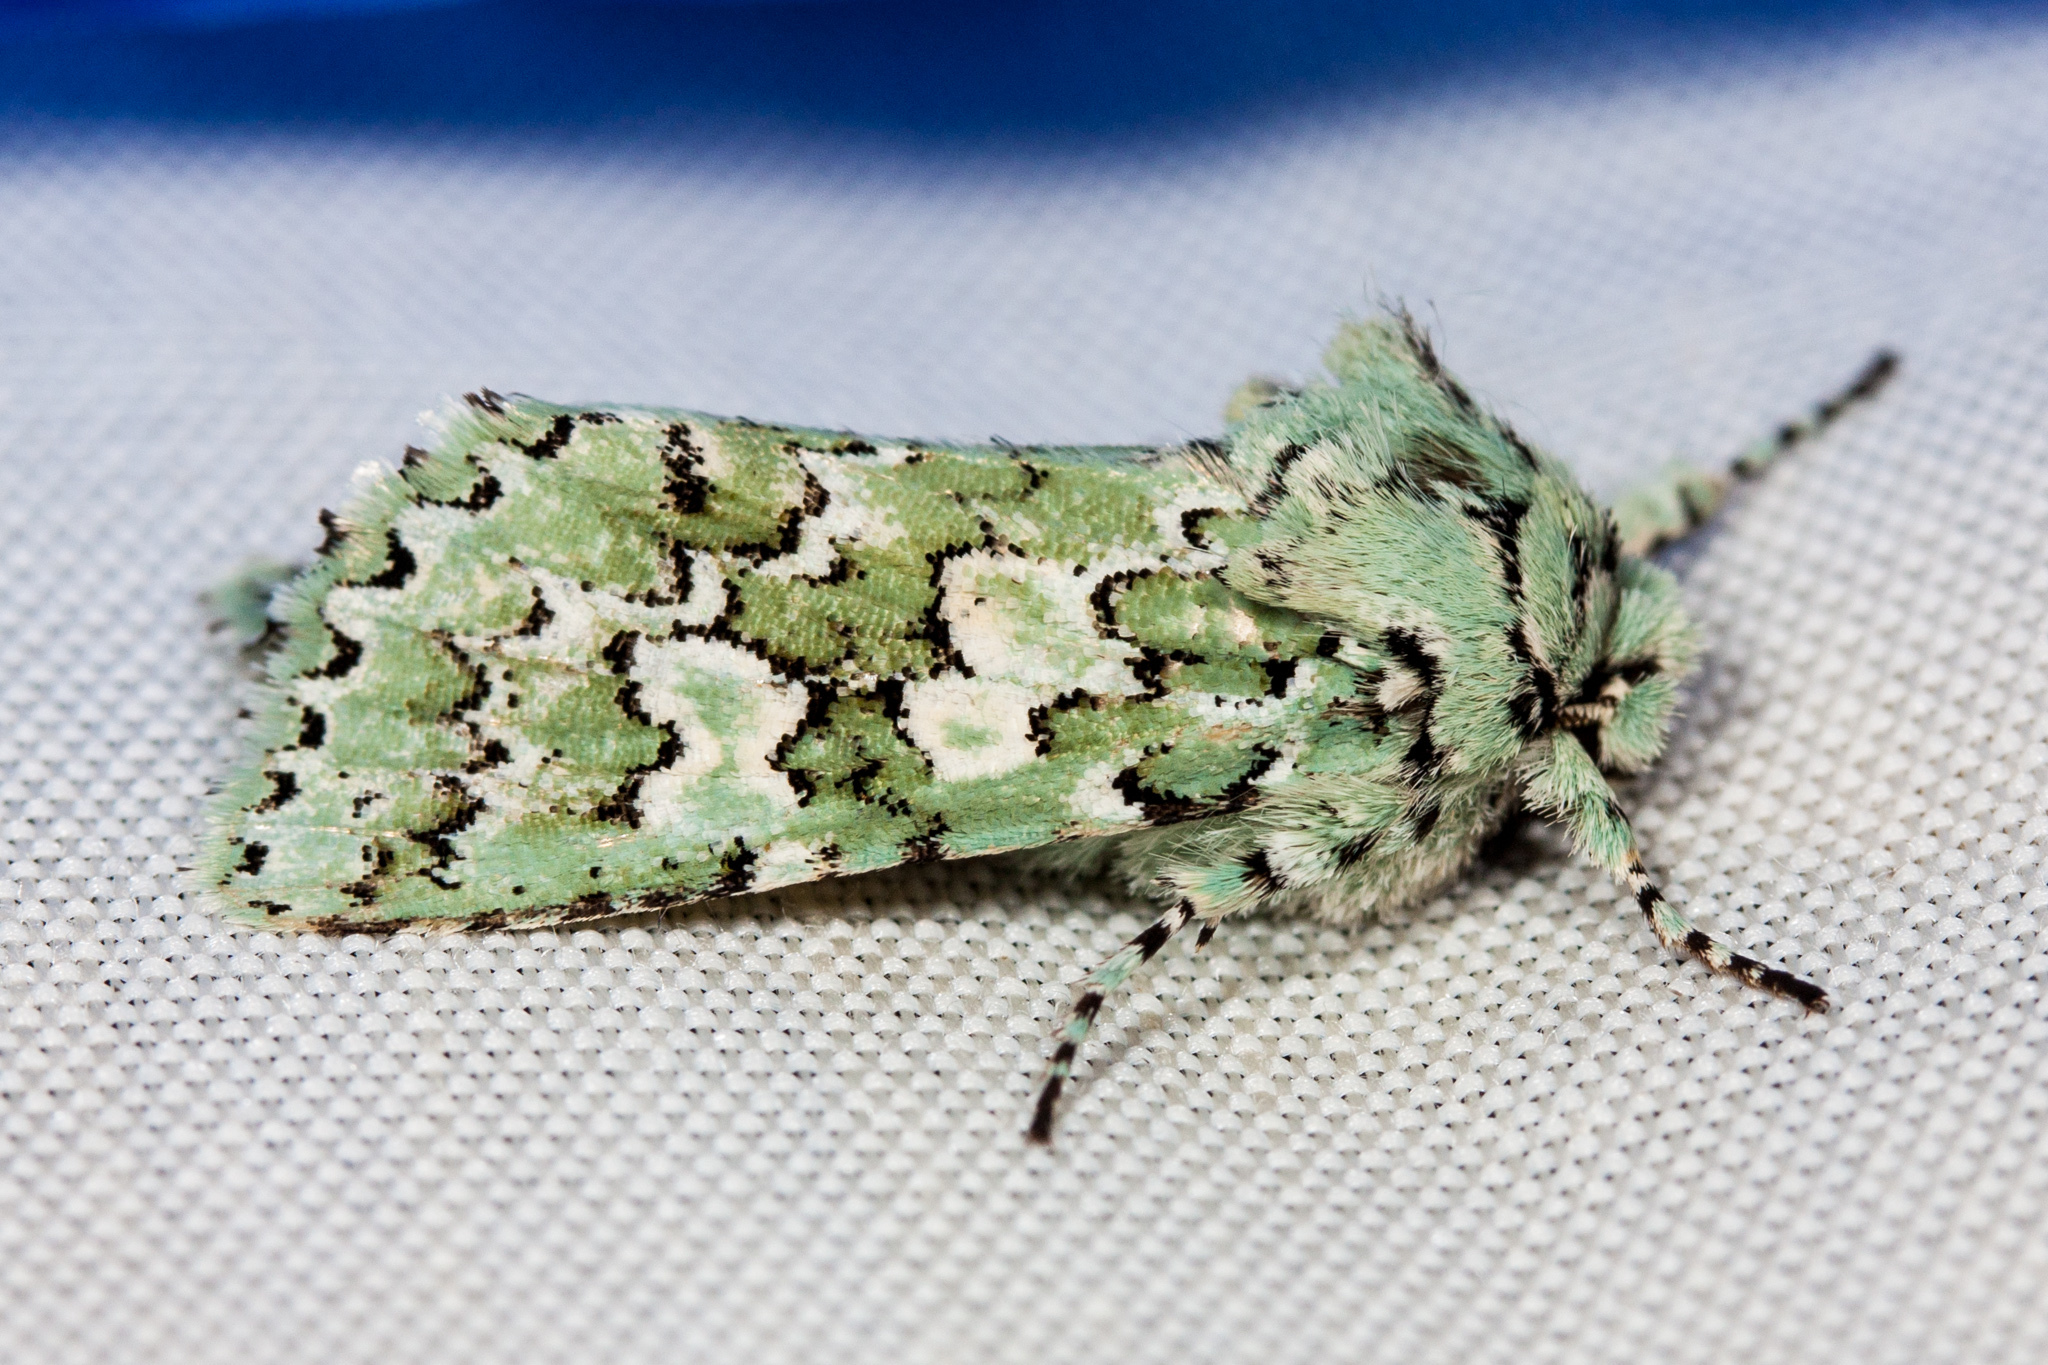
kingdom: Animalia
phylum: Arthropoda
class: Insecta
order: Lepidoptera
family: Noctuidae
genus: Feralia
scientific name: Feralia februalis
